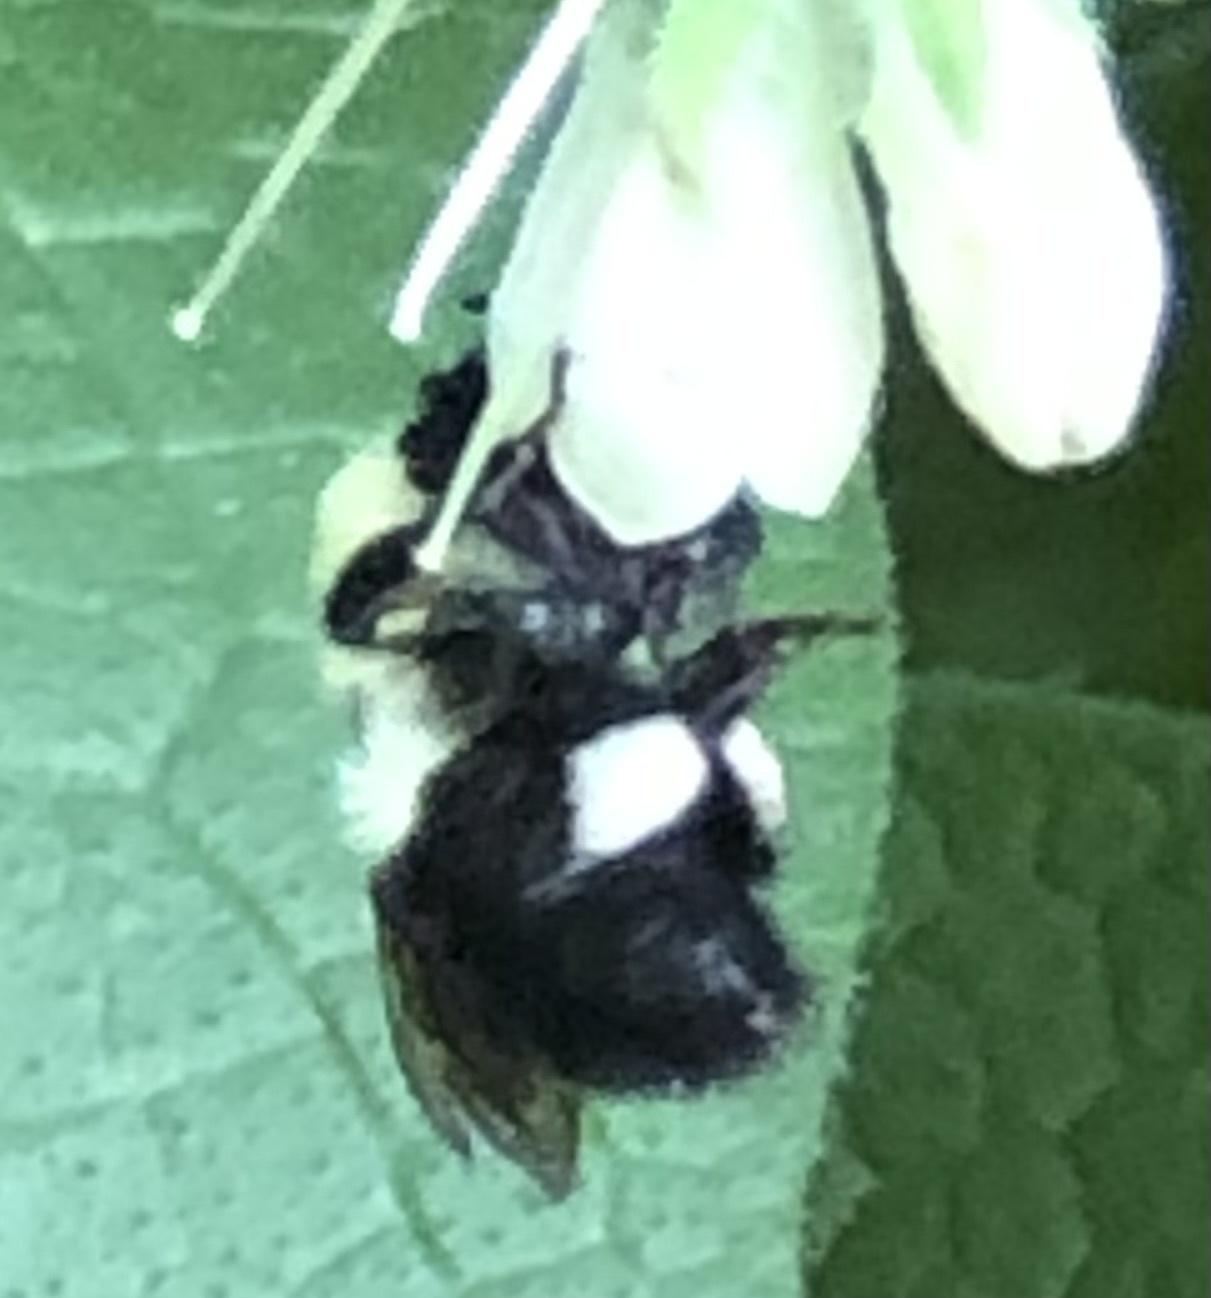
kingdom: Animalia
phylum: Arthropoda
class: Insecta
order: Hymenoptera
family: Apidae
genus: Bombus
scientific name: Bombus bimaculatus
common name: Two-spotted bumble bee
